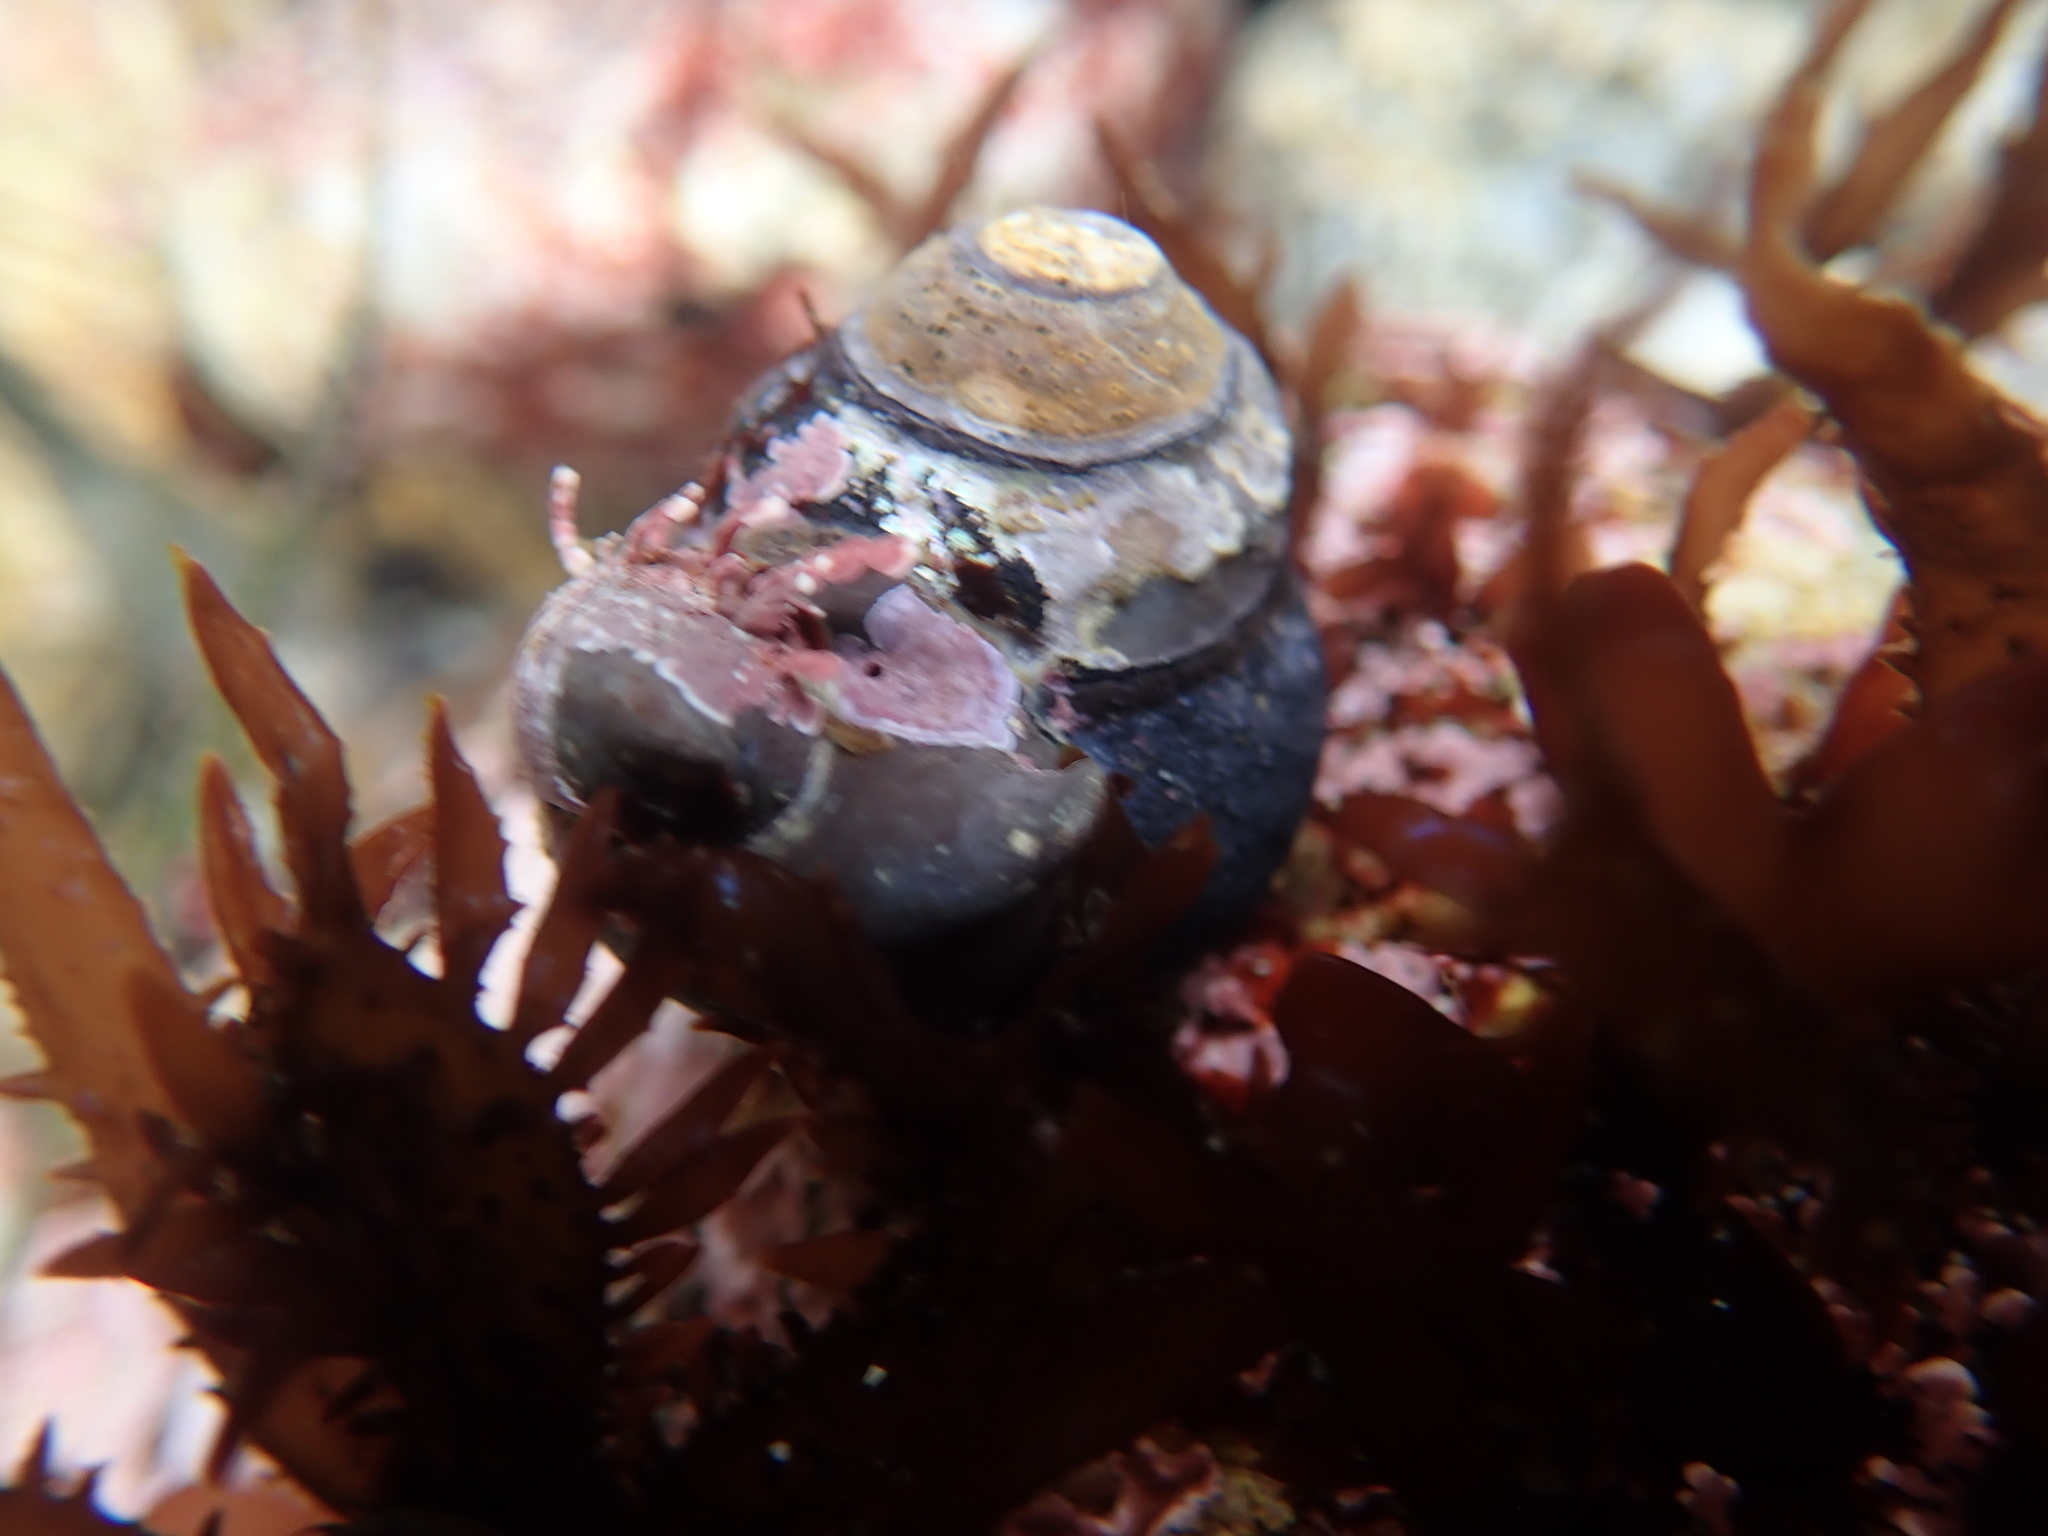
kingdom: Animalia
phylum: Mollusca
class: Gastropoda
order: Trochida
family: Tegulidae
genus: Tegula
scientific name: Tegula funebralis
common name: Black tegula
